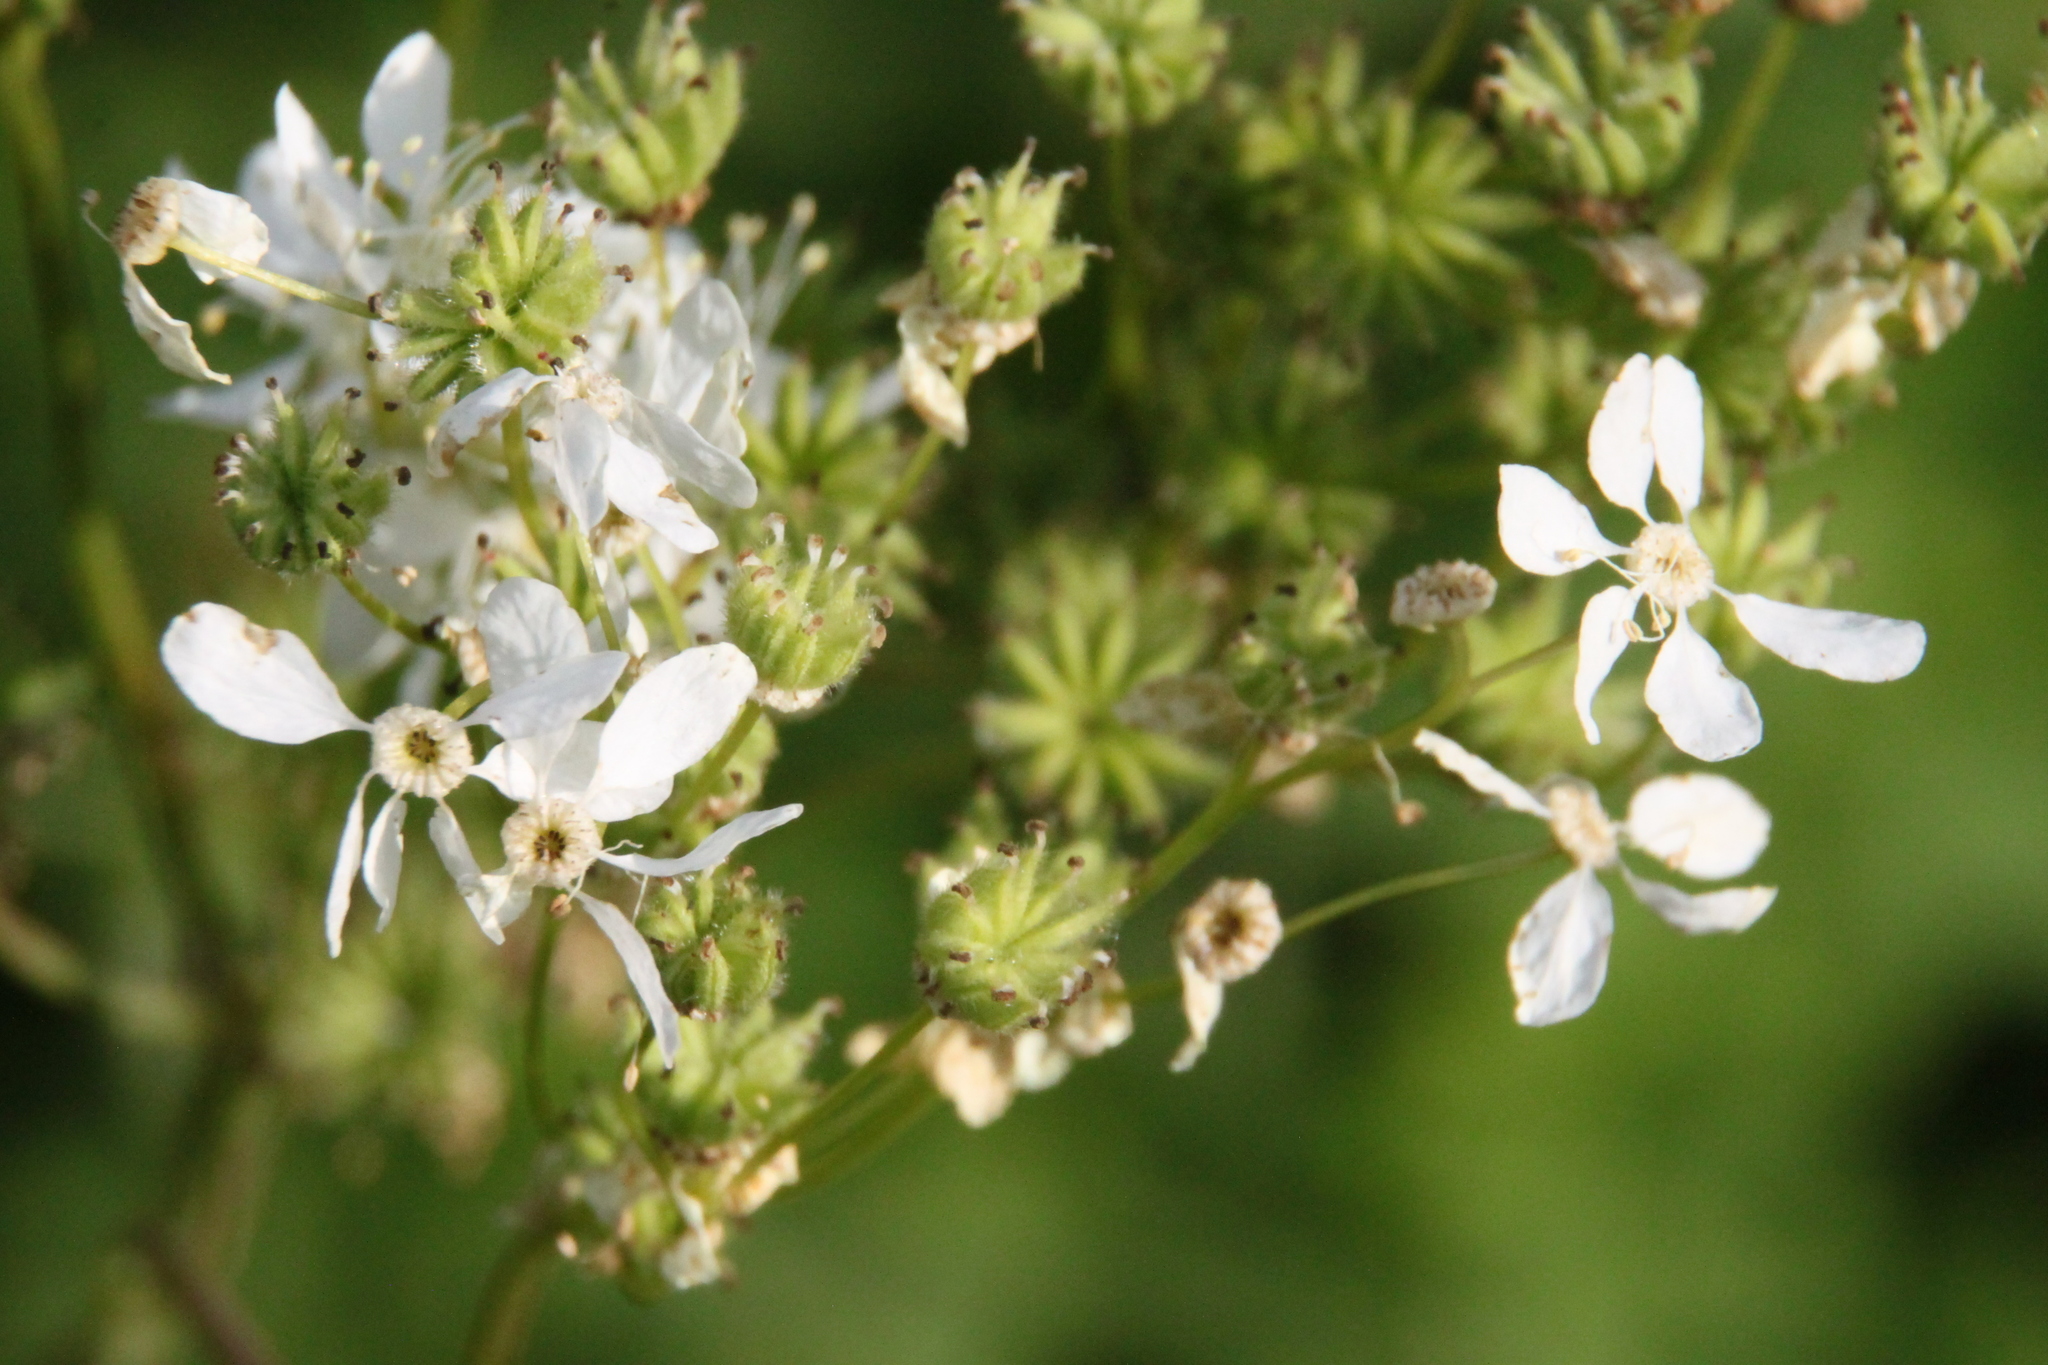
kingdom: Plantae
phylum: Tracheophyta
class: Magnoliopsida
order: Rosales
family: Rosaceae
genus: Filipendula
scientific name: Filipendula vulgaris
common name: Dropwort
